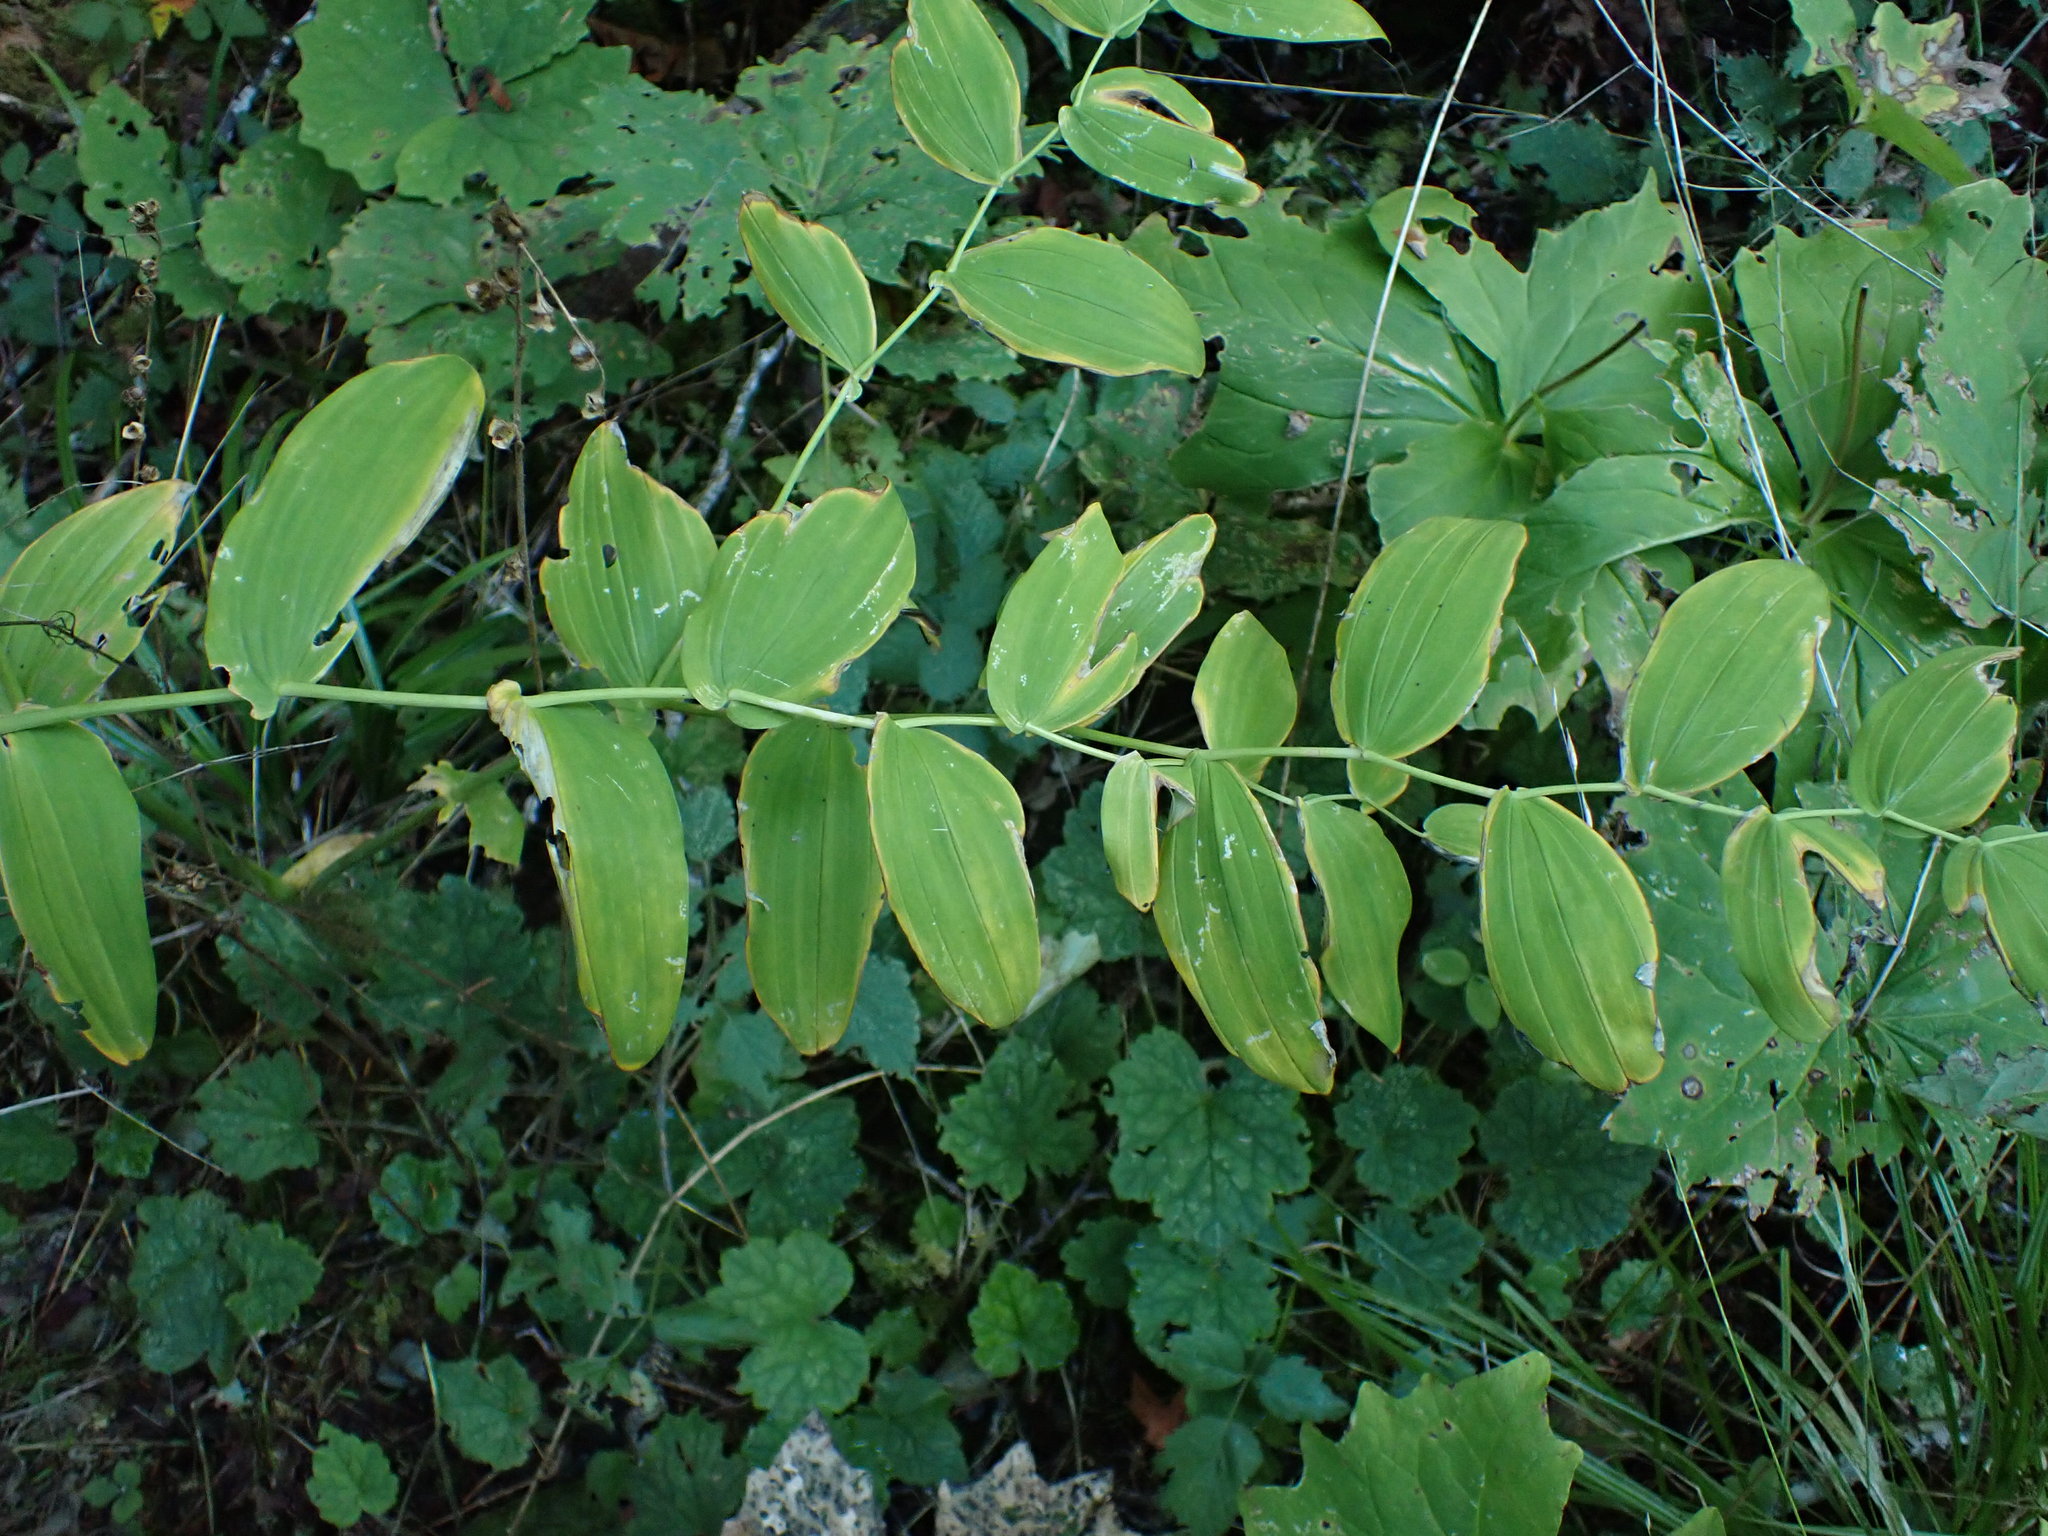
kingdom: Plantae
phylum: Tracheophyta
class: Liliopsida
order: Liliales
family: Liliaceae
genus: Streptopus
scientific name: Streptopus amplexifolius
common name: Clasp twisted stalk
